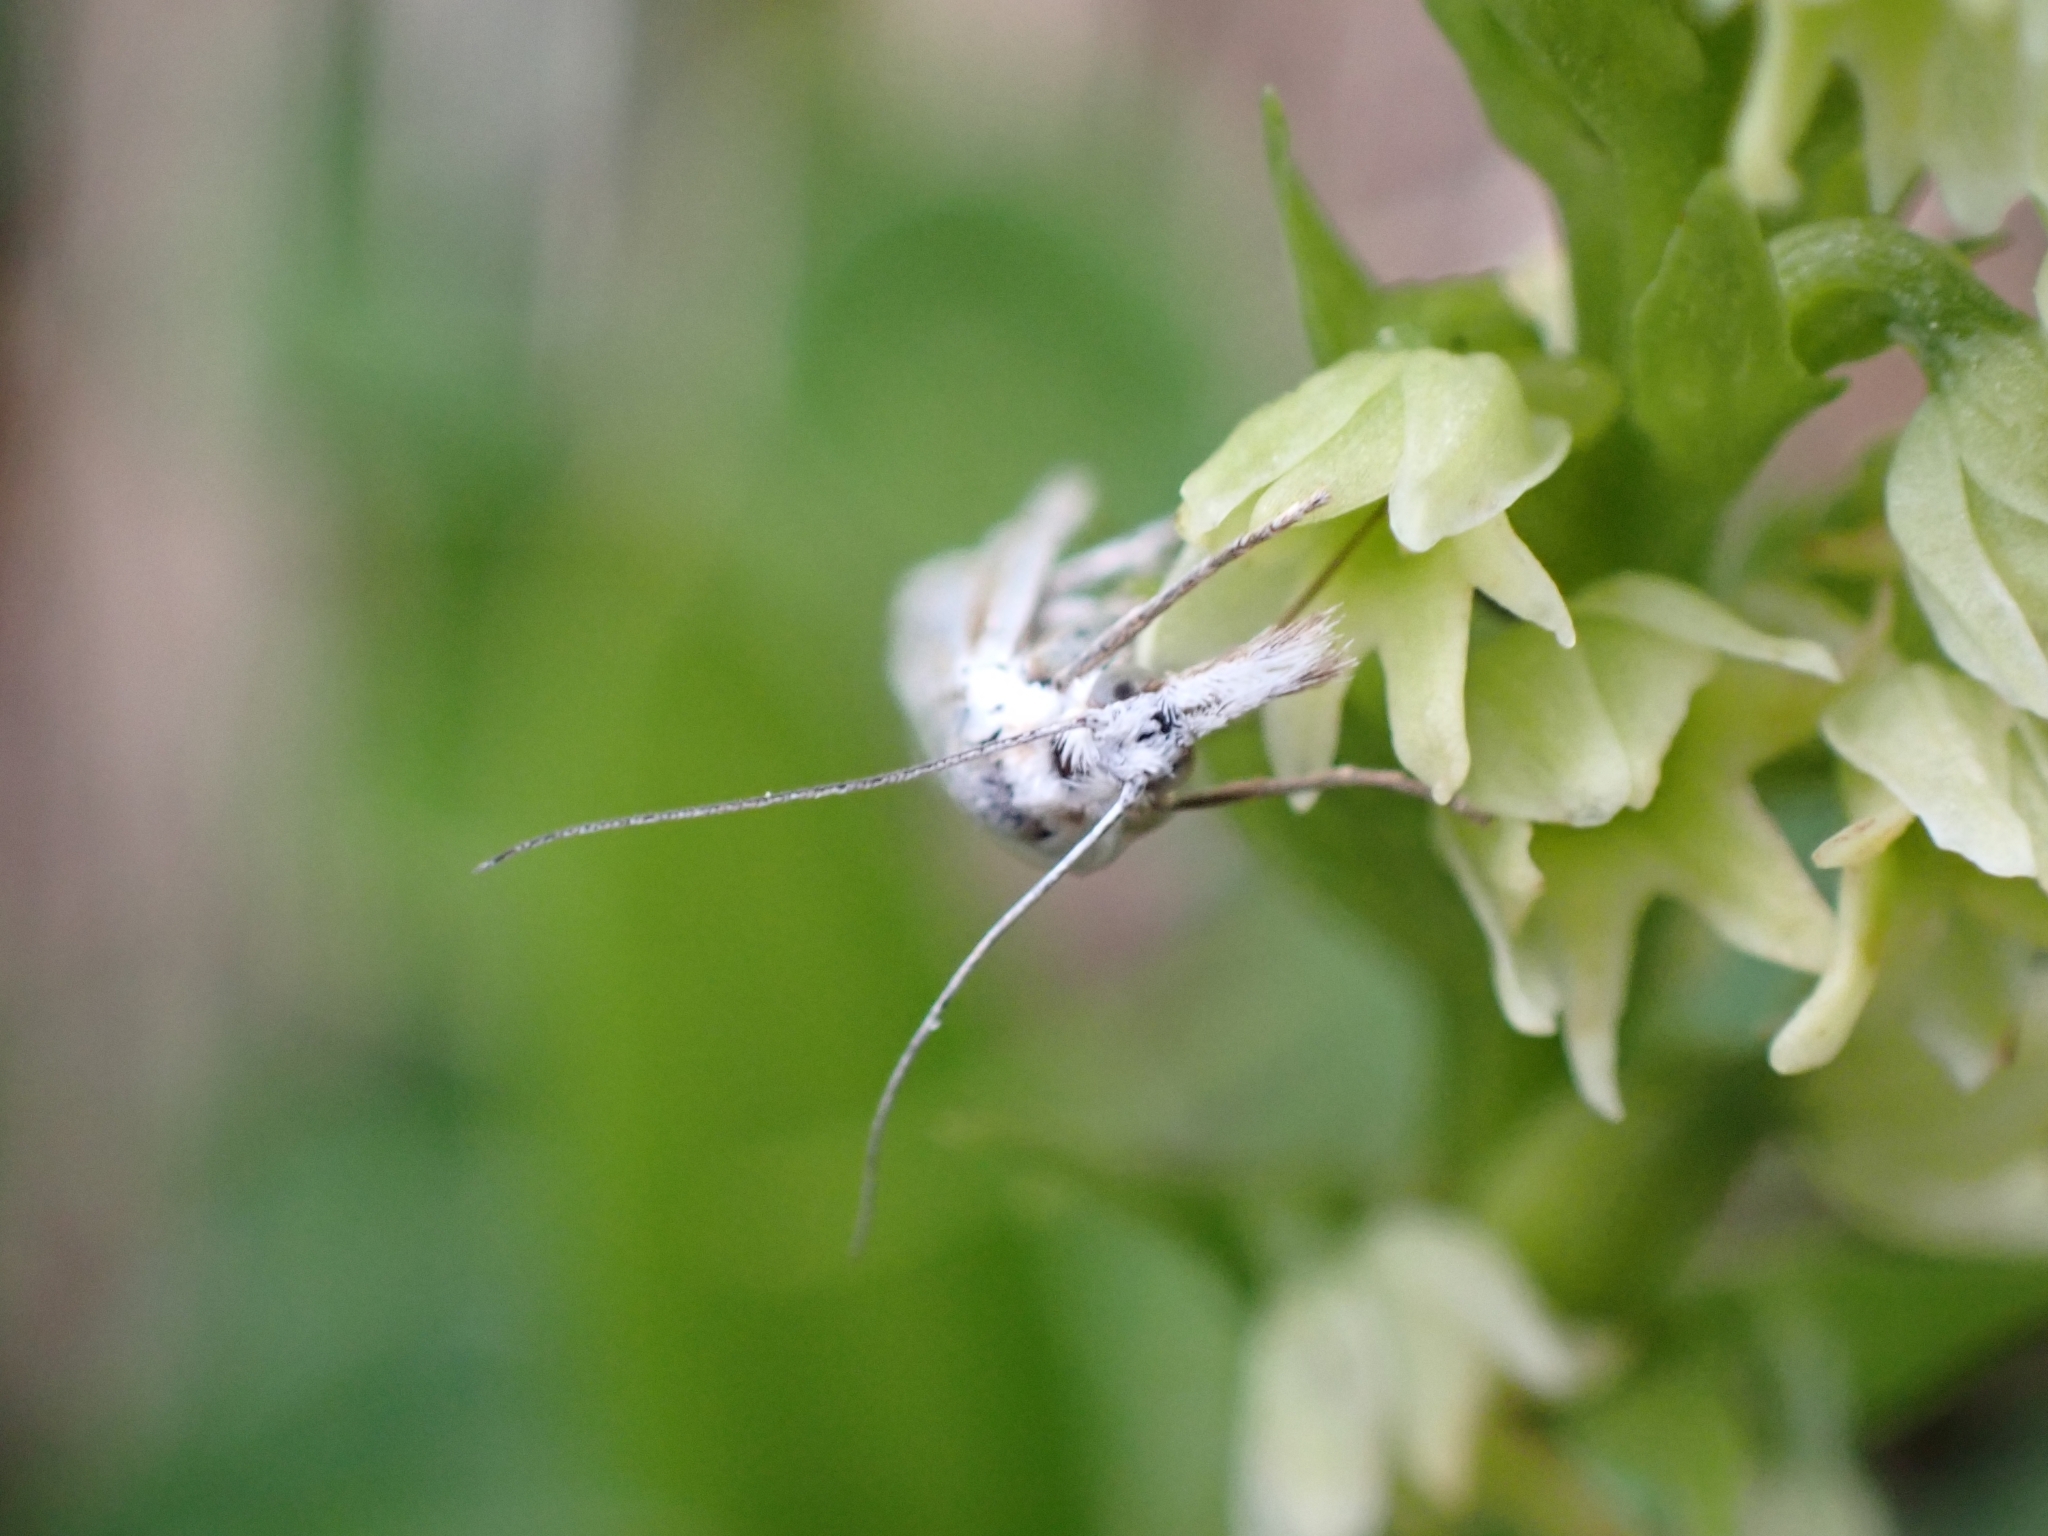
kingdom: Animalia
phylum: Arthropoda
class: Insecta
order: Lepidoptera
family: Crambidae
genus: Crambus
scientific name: Crambus nemorella
